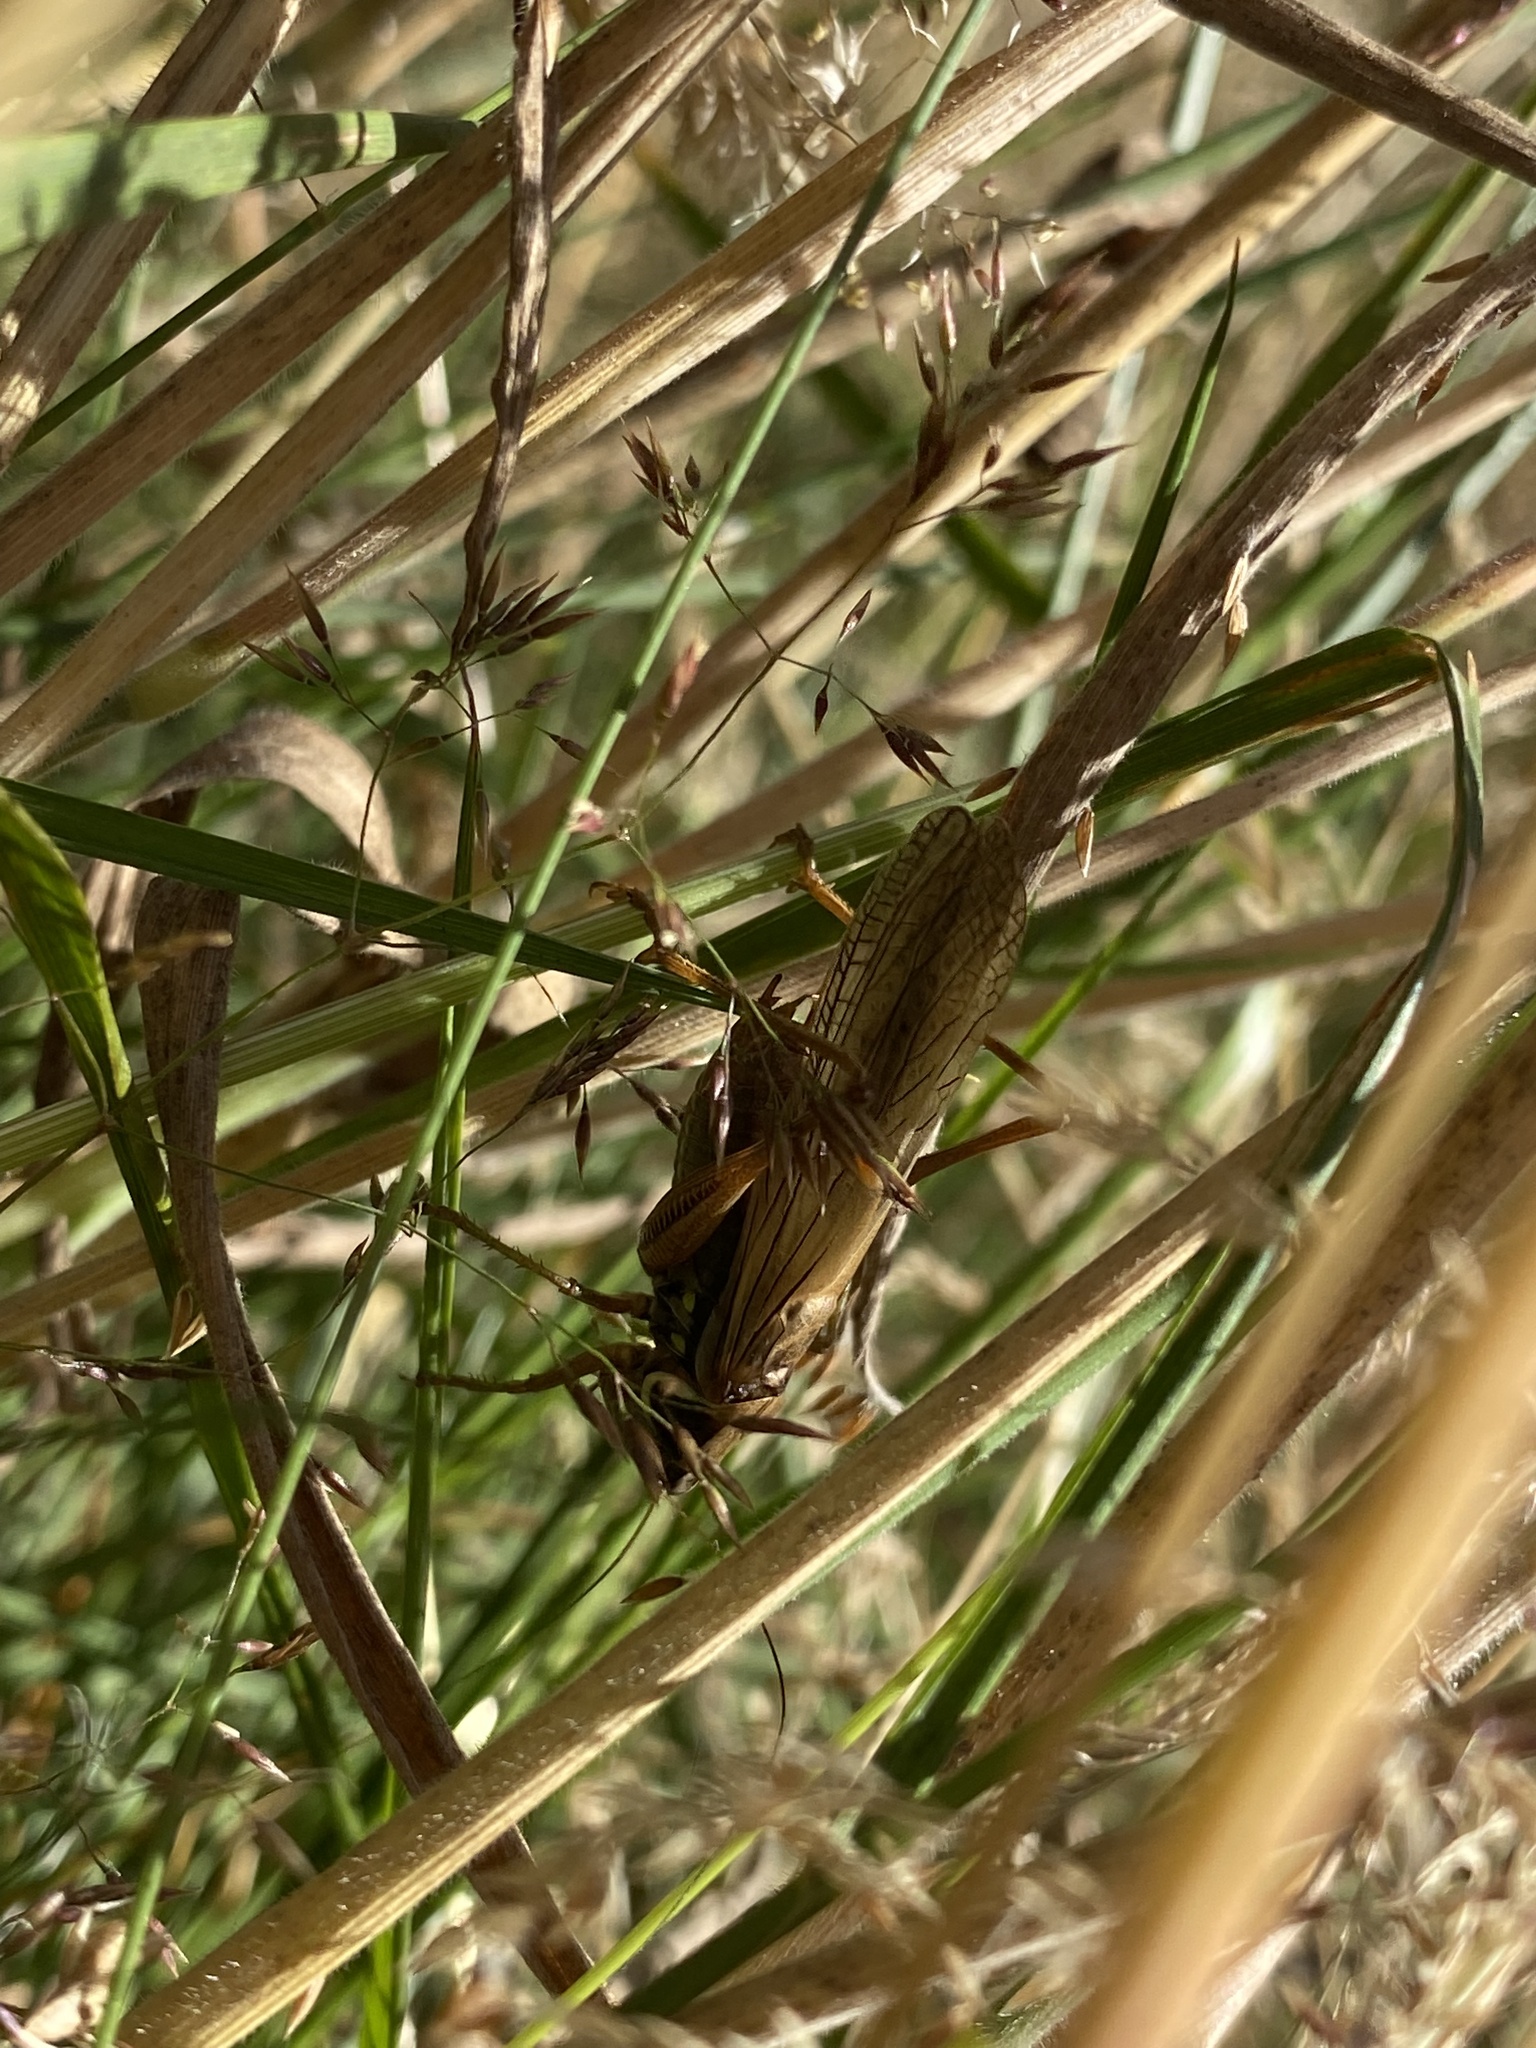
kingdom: Animalia
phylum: Arthropoda
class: Insecta
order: Orthoptera
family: Tettigoniidae
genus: Roeseliana
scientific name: Roeseliana roeselii
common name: Roesel's bush cricket
